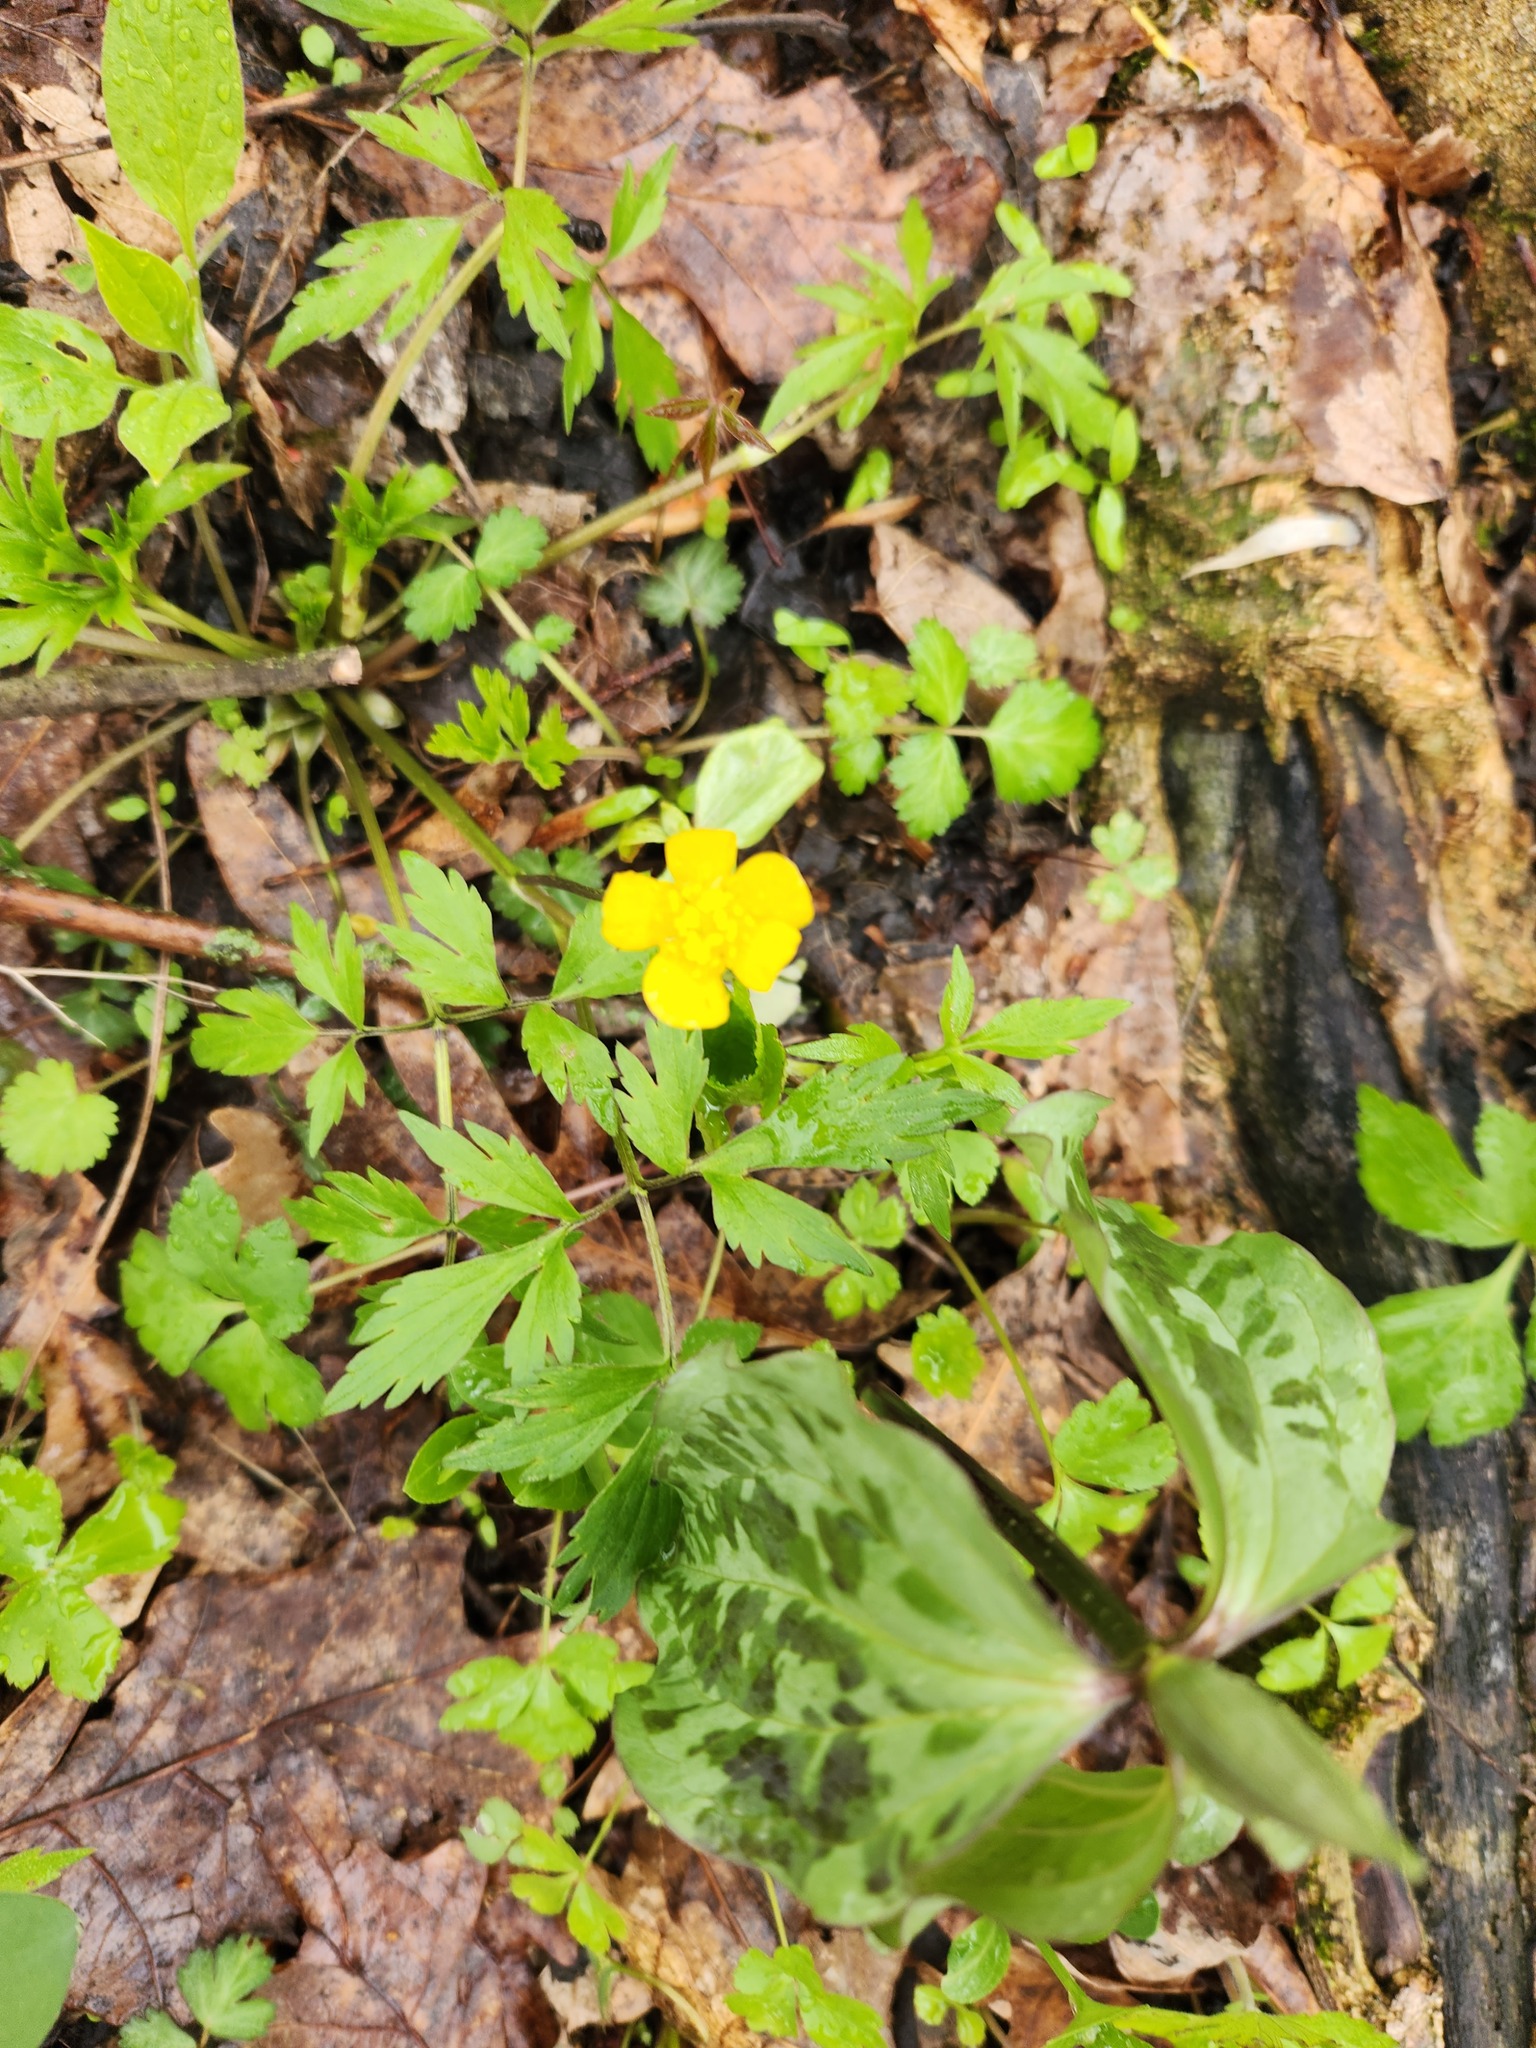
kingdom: Plantae
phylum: Tracheophyta
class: Magnoliopsida
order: Ranunculales
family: Ranunculaceae
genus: Ranunculus
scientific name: Ranunculus hispidus
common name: Bristly buttercup
